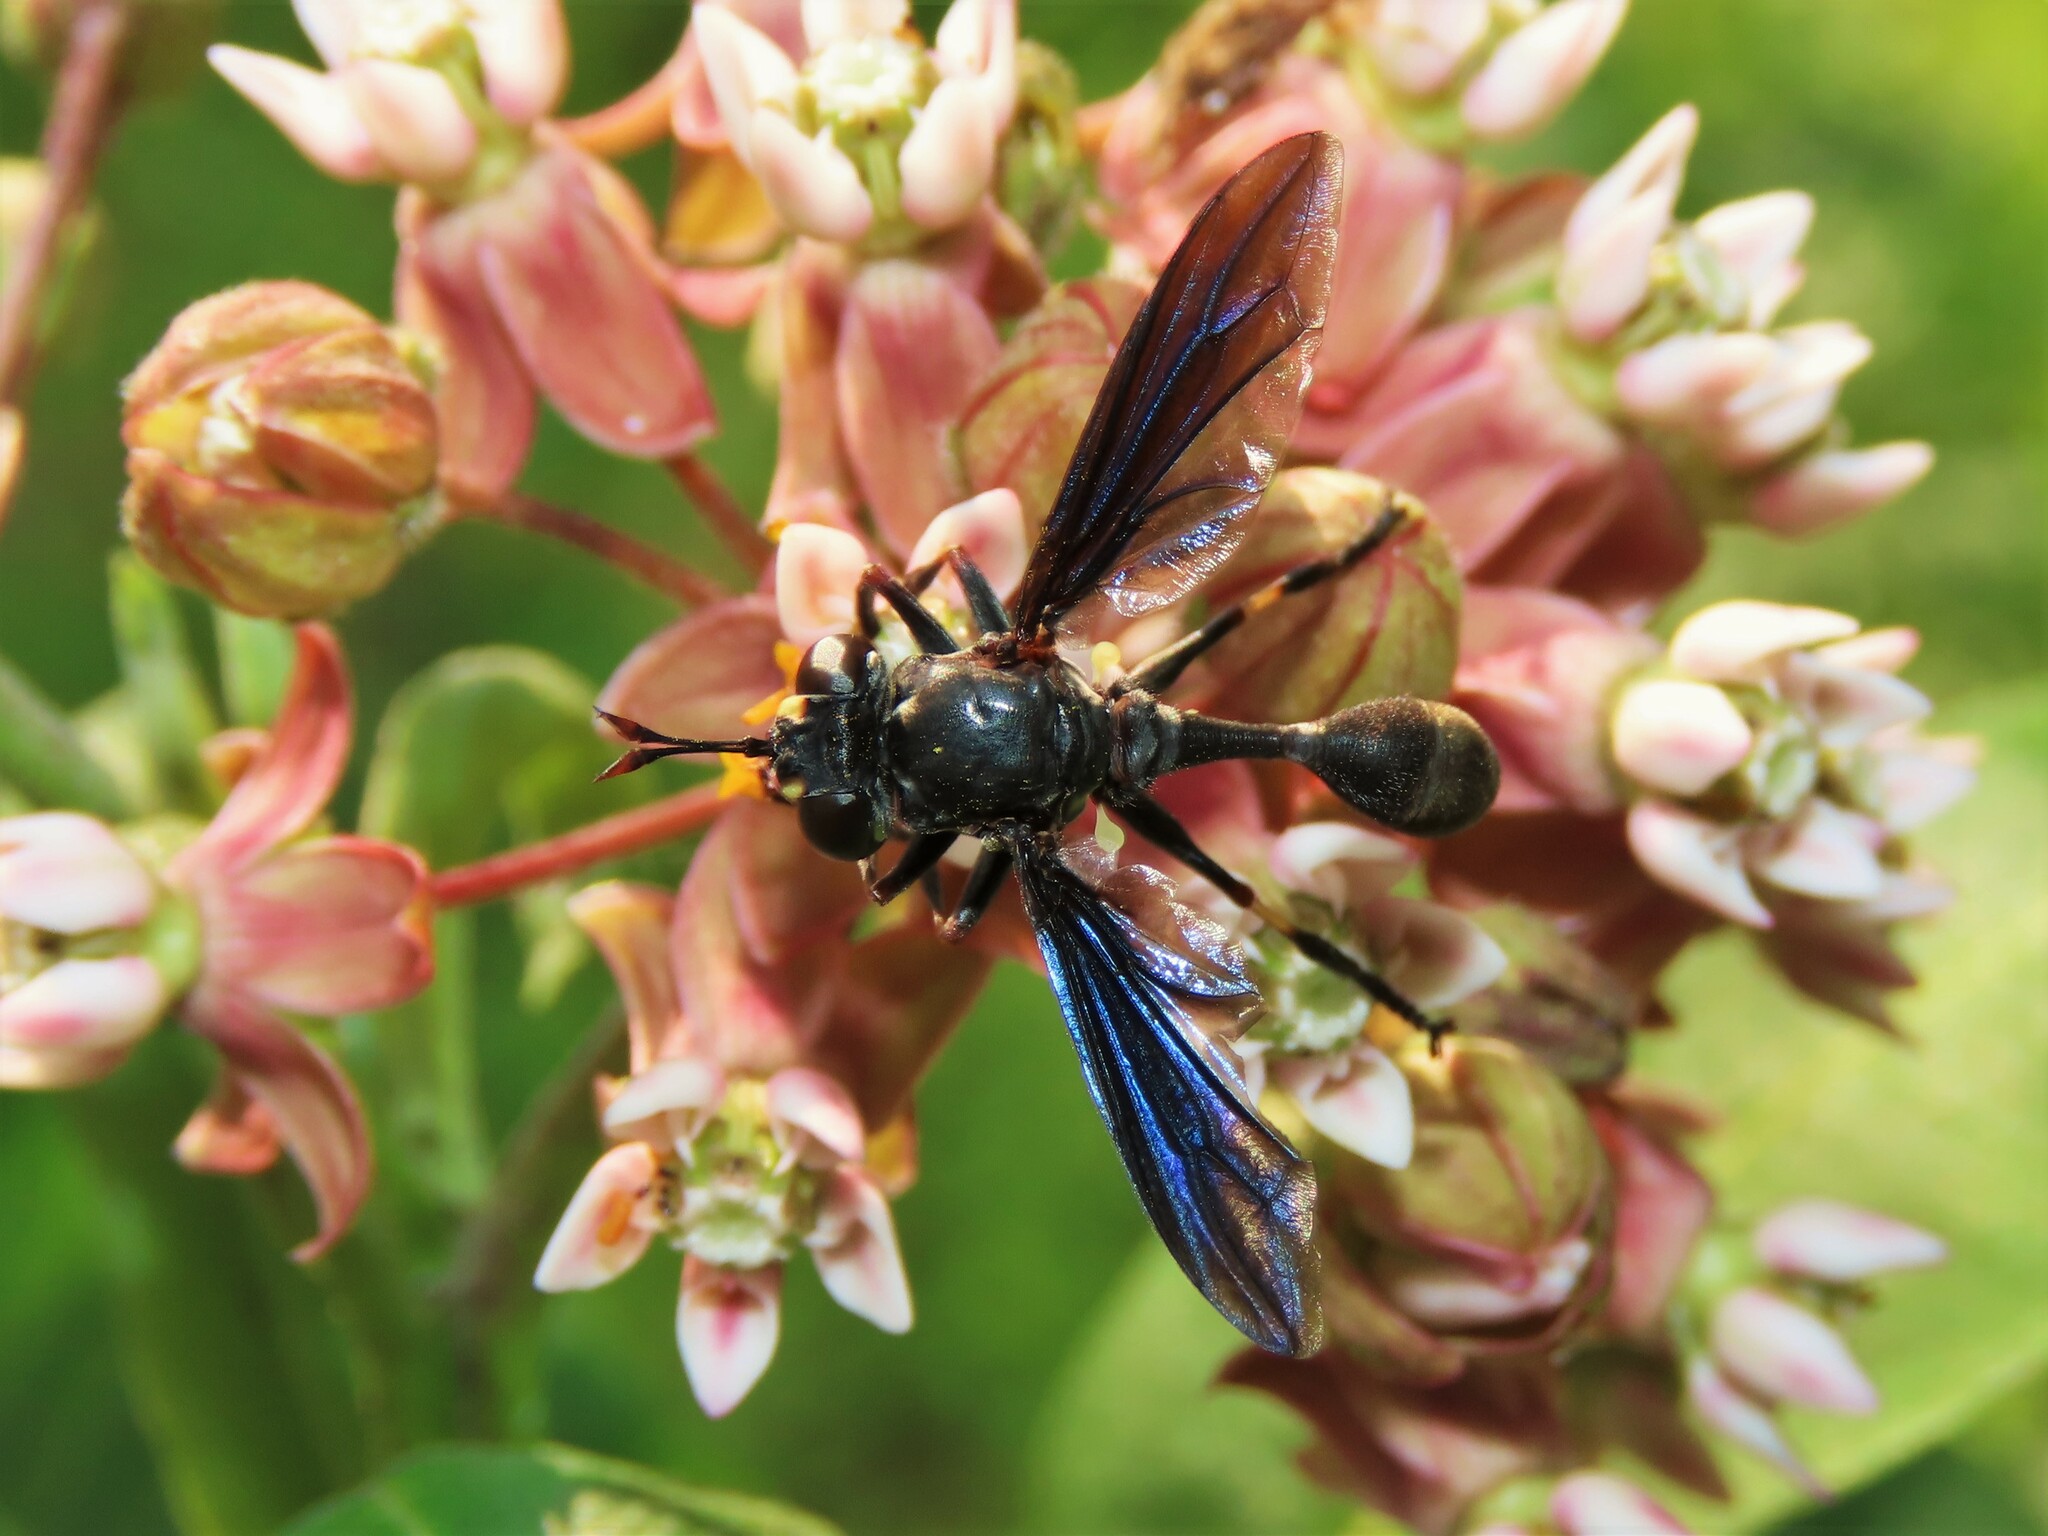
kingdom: Animalia
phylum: Arthropoda
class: Insecta
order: Diptera
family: Conopidae
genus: Physocephala
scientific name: Physocephala tibialis
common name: Common eastern physocephala
